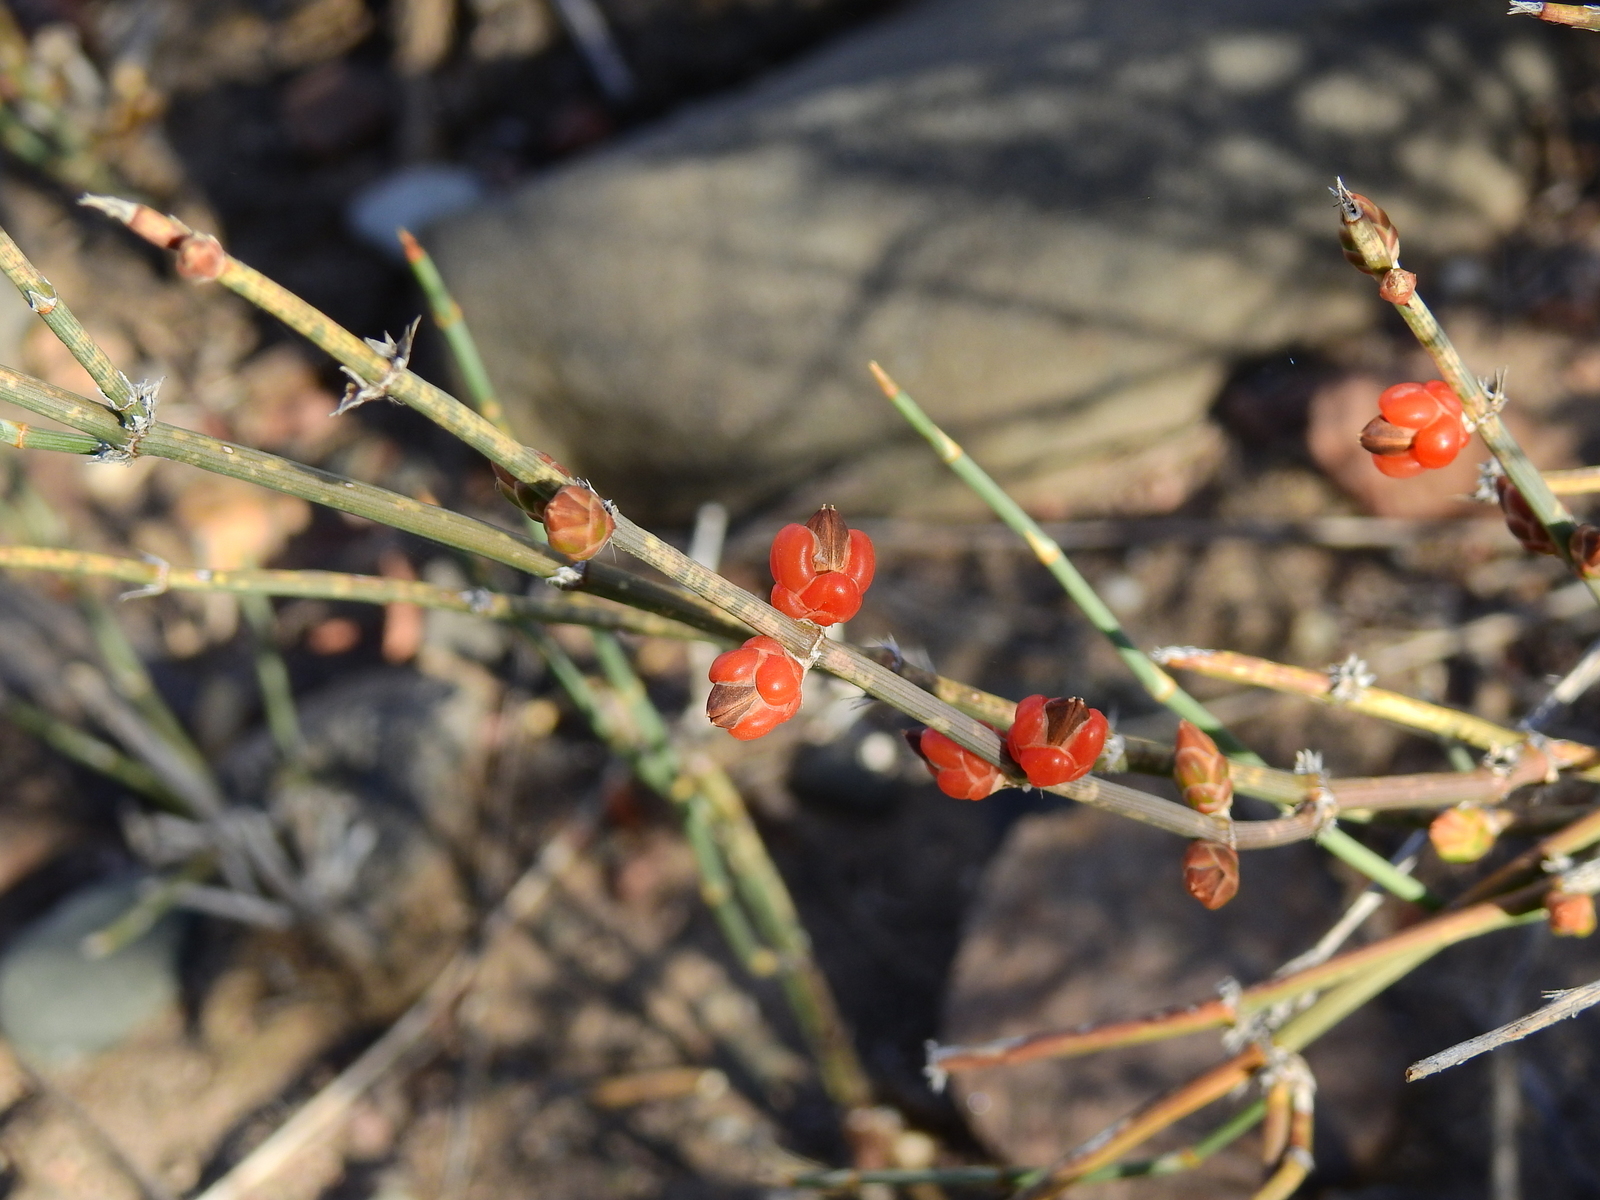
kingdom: Plantae
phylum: Tracheophyta
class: Gnetopsida
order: Ephedrales
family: Ephedraceae
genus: Ephedra
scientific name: Ephedra triandra
